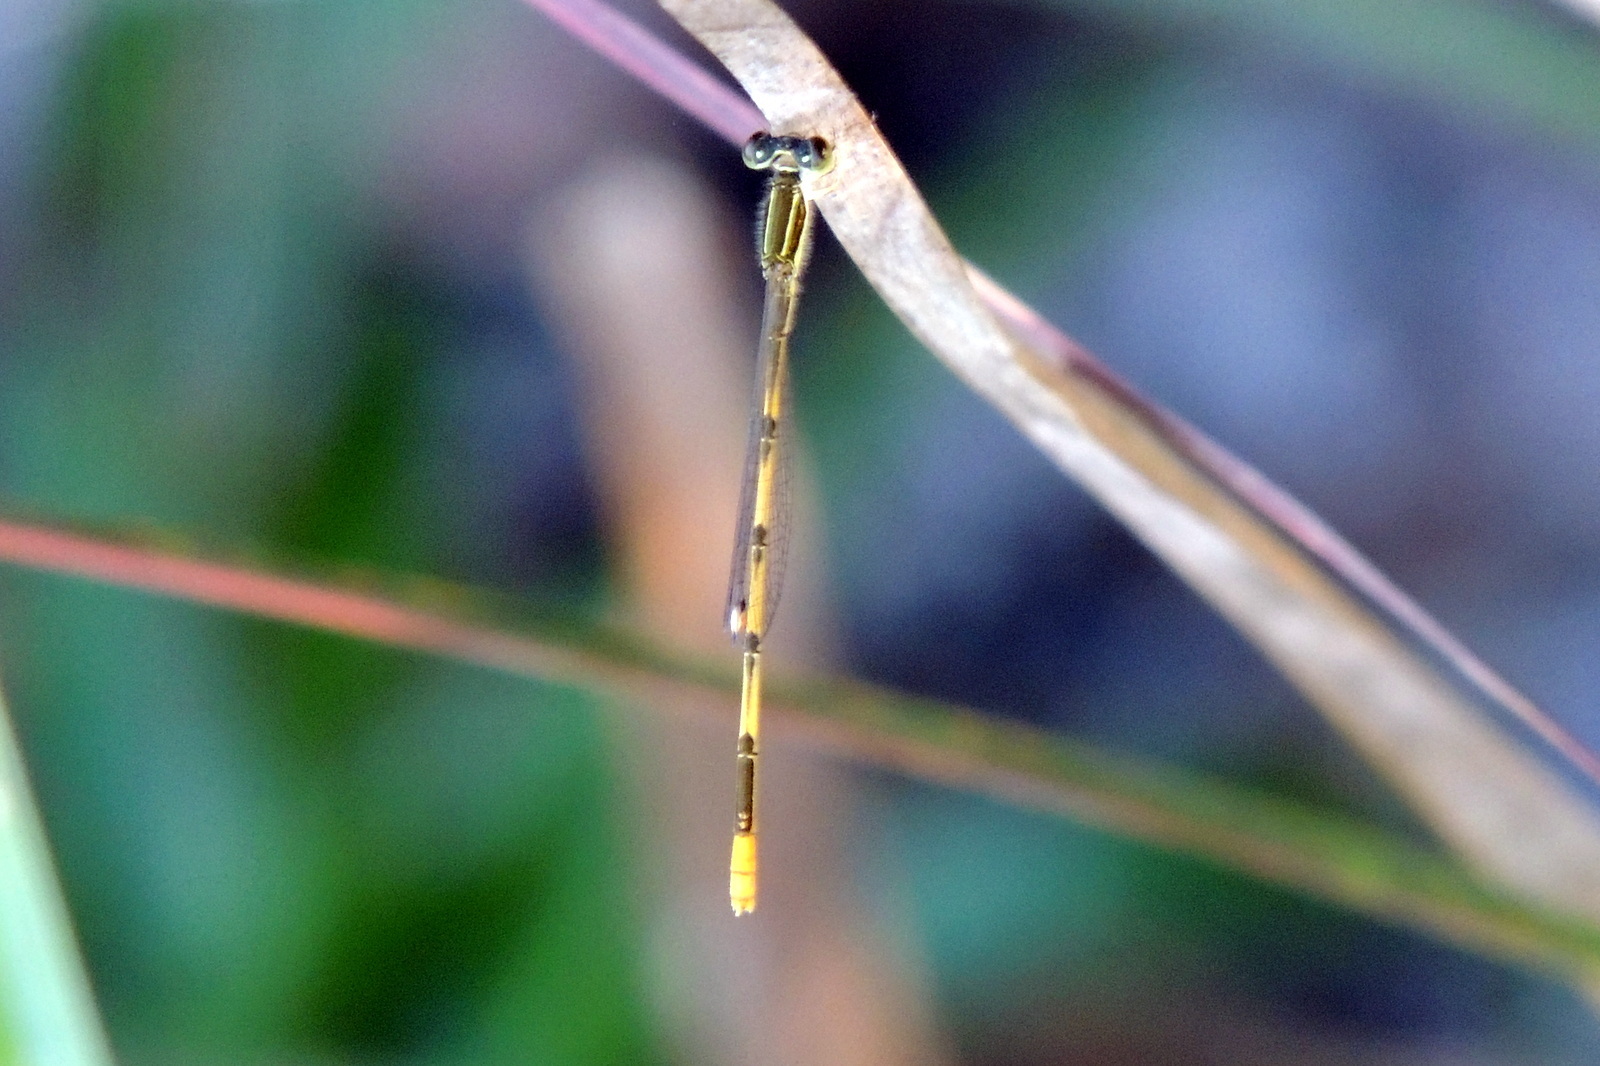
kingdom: Animalia
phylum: Arthropoda
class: Insecta
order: Odonata
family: Coenagrionidae
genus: Ischnura
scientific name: Ischnura hastata
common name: Citrine forktail
